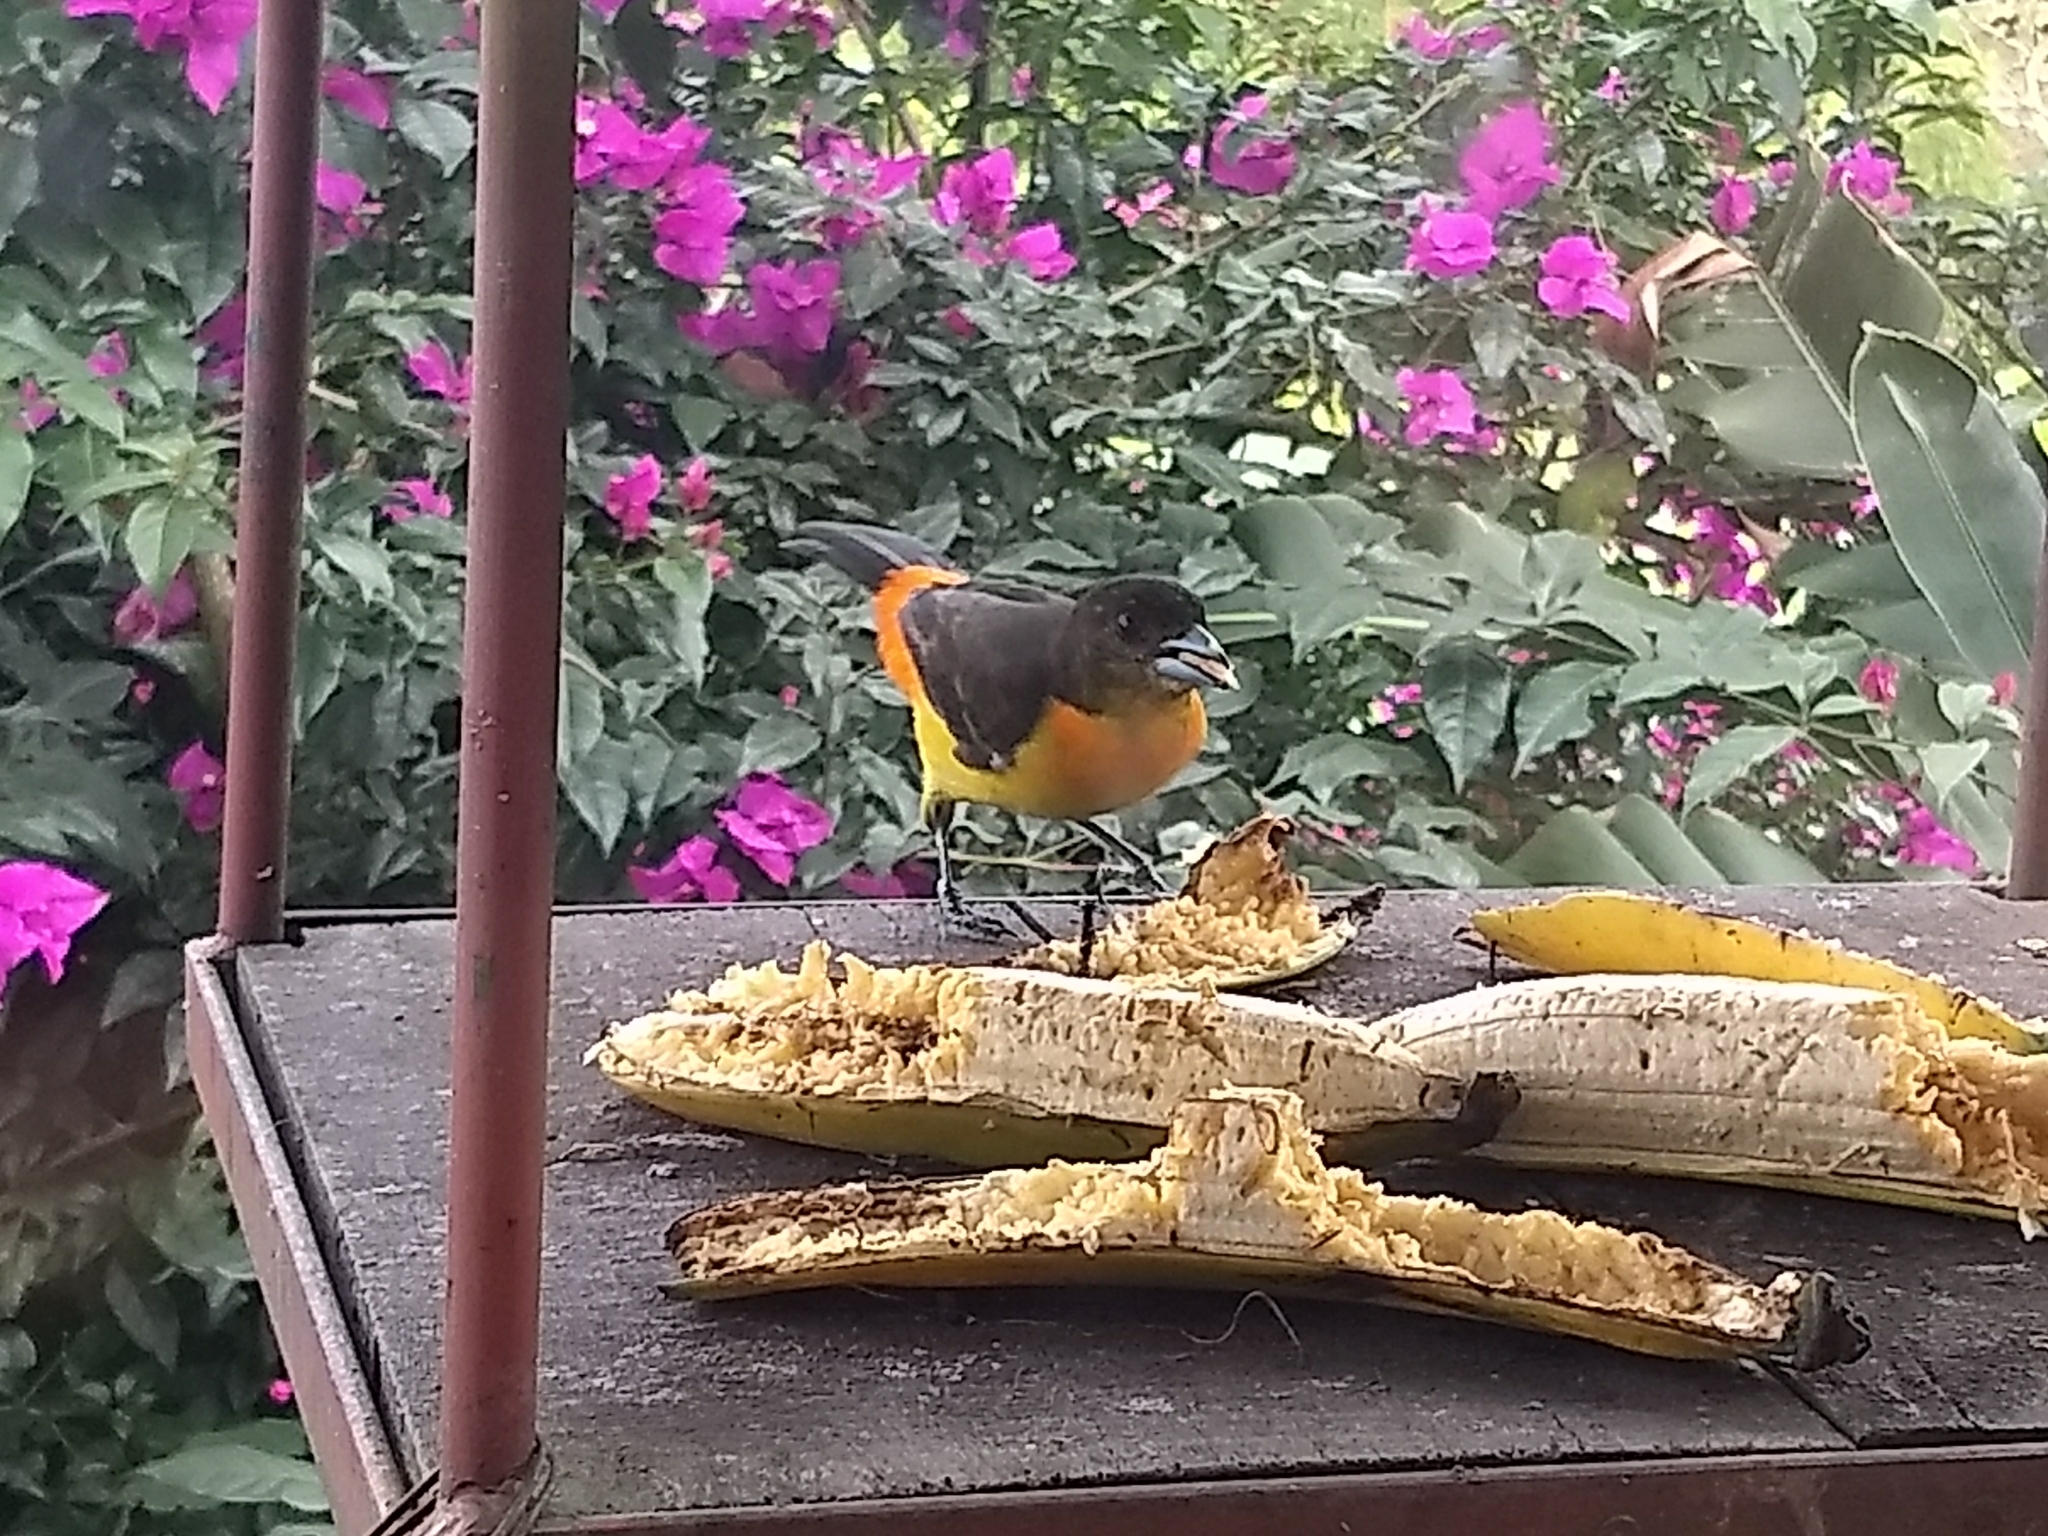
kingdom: Animalia
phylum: Chordata
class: Aves
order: Passeriformes
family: Thraupidae
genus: Ramphocelus
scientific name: Ramphocelus flammigerus
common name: Flame-rumped tanager
